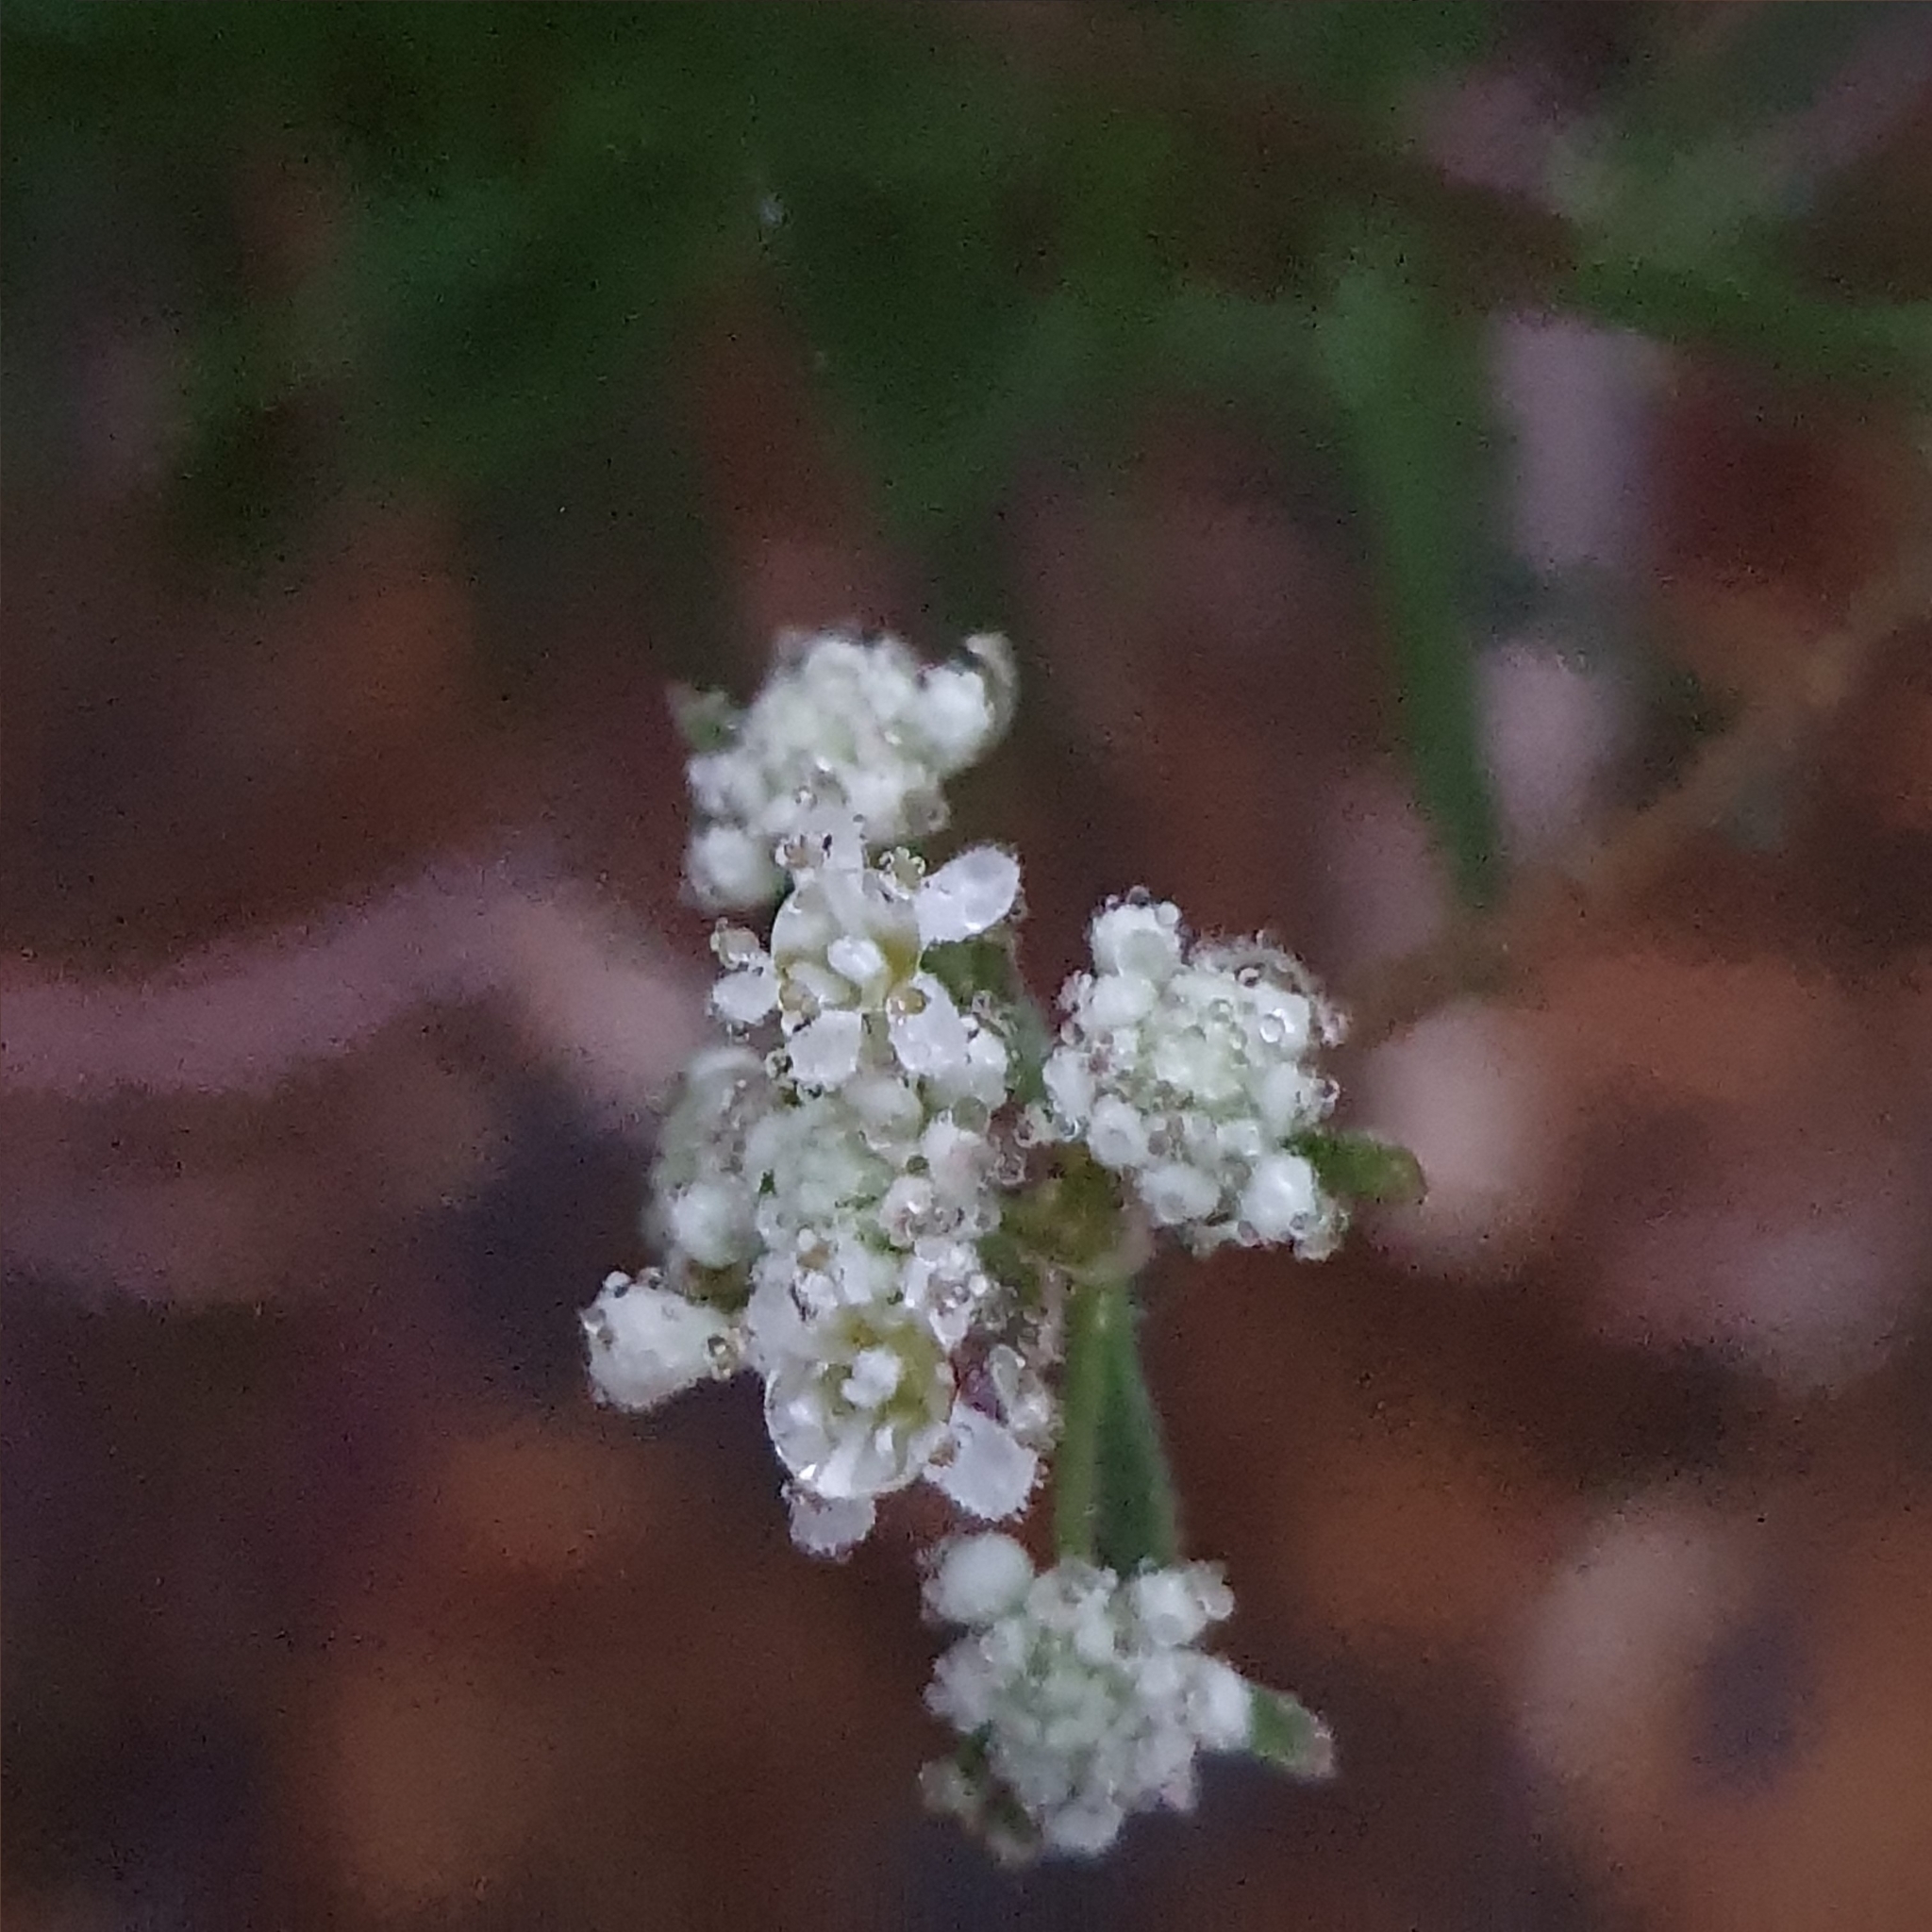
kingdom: Plantae
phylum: Tracheophyta
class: Magnoliopsida
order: Malpighiales
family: Phyllanthaceae
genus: Poranthera
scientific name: Poranthera corymbosa
